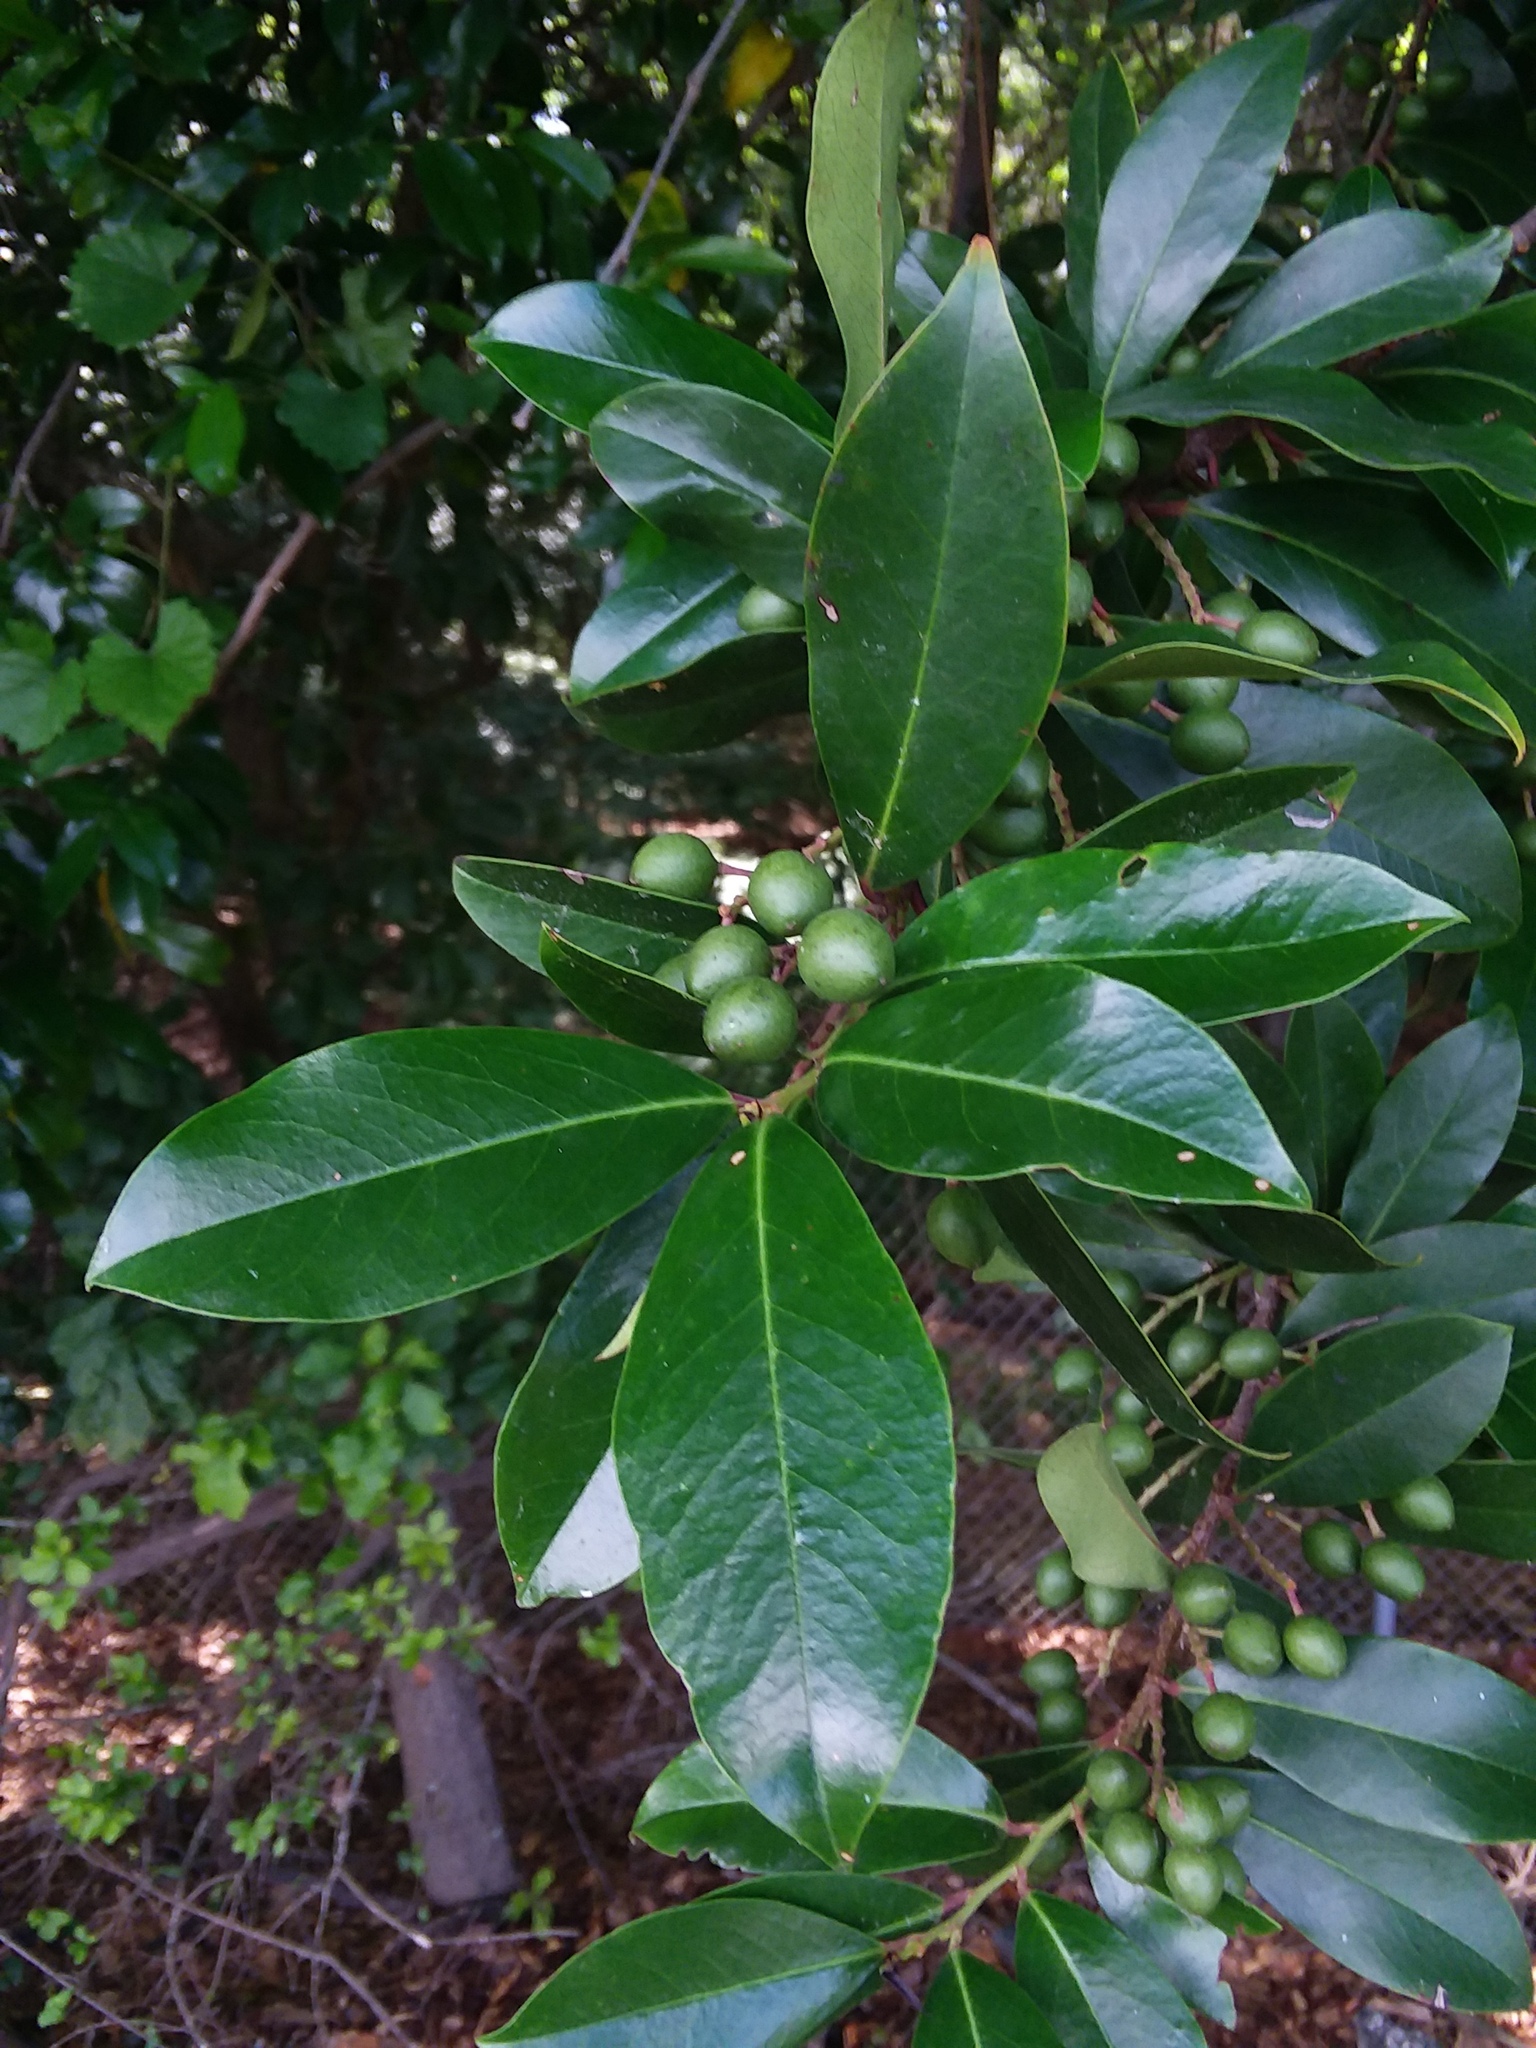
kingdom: Plantae
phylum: Tracheophyta
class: Magnoliopsida
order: Rosales
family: Rosaceae
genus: Prunus
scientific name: Prunus caroliniana
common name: Carolina laurel cherry
